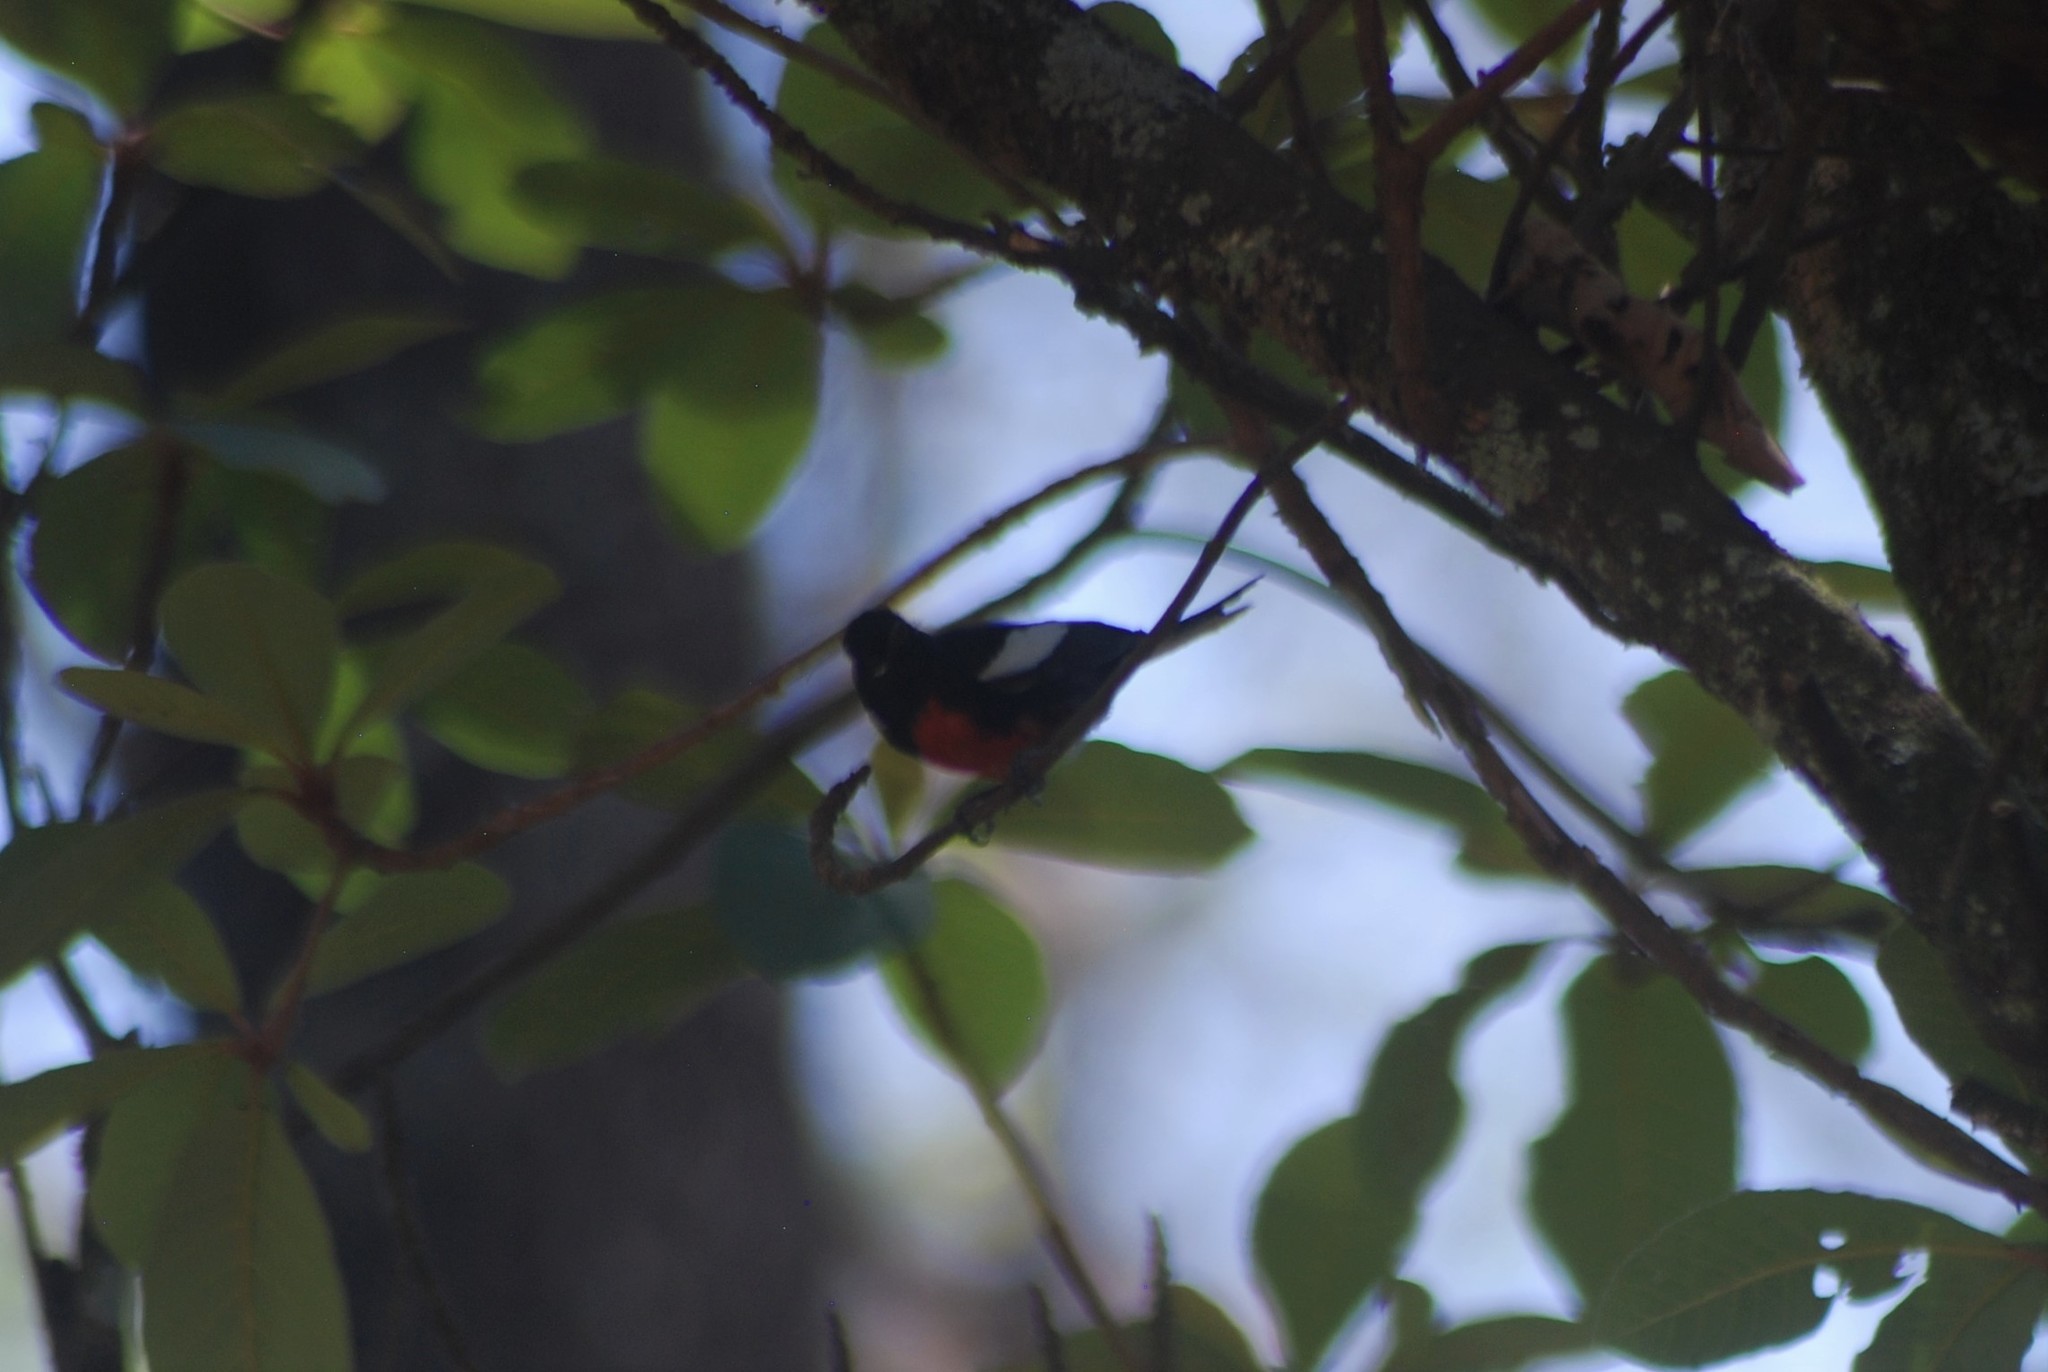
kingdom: Animalia
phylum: Chordata
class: Aves
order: Passeriformes
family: Parulidae
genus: Myioborus
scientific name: Myioborus pictus
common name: Painted whitestart
